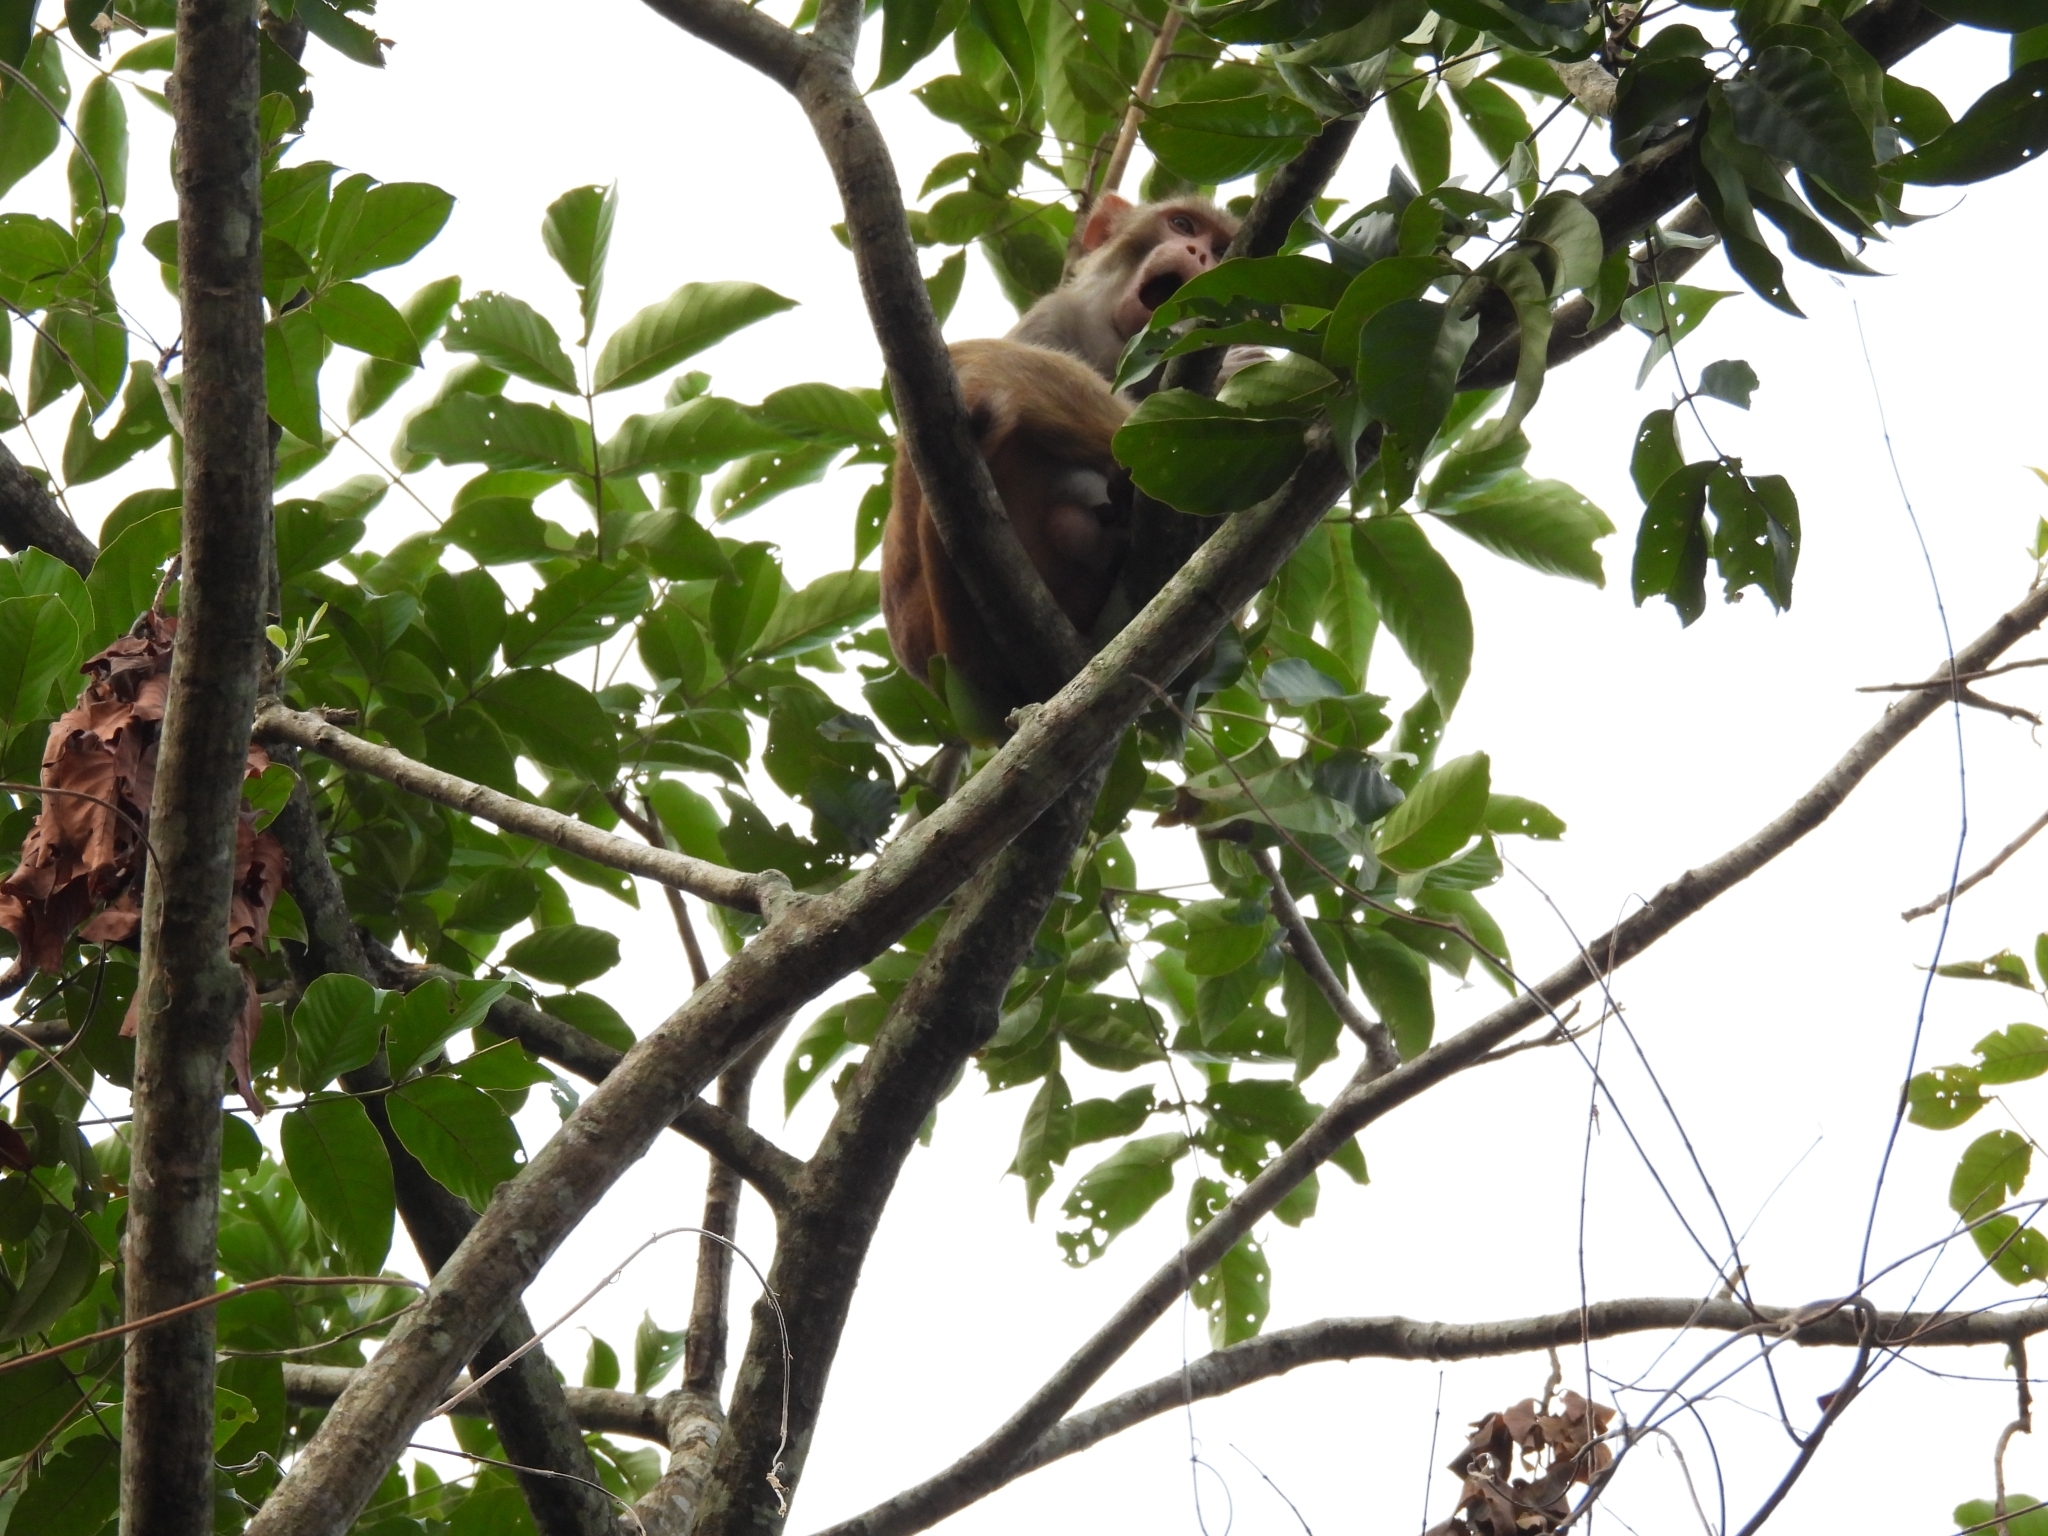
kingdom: Animalia
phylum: Chordata
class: Mammalia
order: Primates
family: Cercopithecidae
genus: Macaca
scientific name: Macaca mulatta
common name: Rhesus monkey
